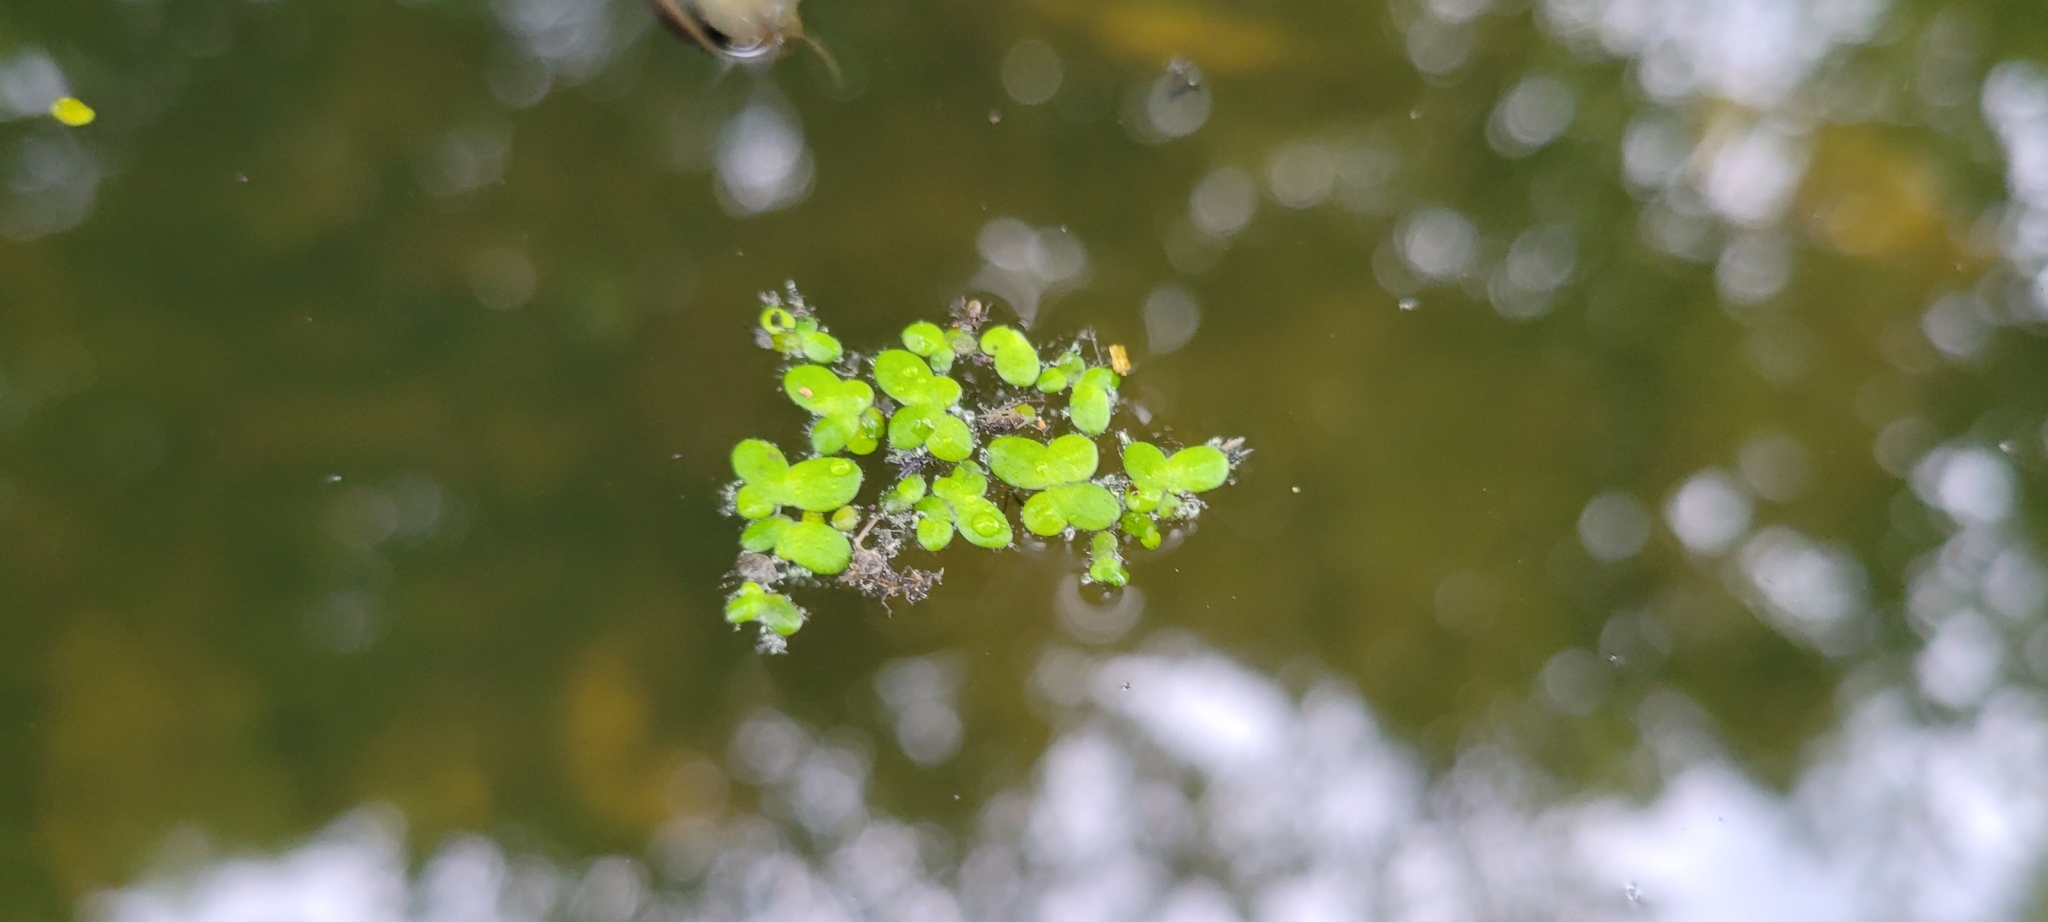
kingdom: Plantae
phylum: Tracheophyta
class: Liliopsida
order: Alismatales
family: Araceae
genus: Lemna
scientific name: Lemna minor
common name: Common duckweed
